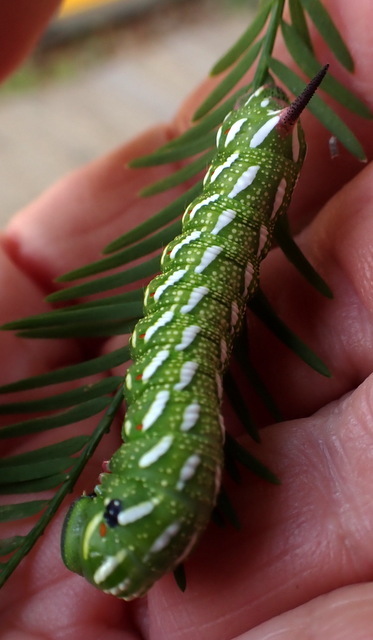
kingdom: Animalia
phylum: Arthropoda
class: Insecta
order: Lepidoptera
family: Sphingidae
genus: Isoparce
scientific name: Isoparce cupressi
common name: Cypress sphinx
